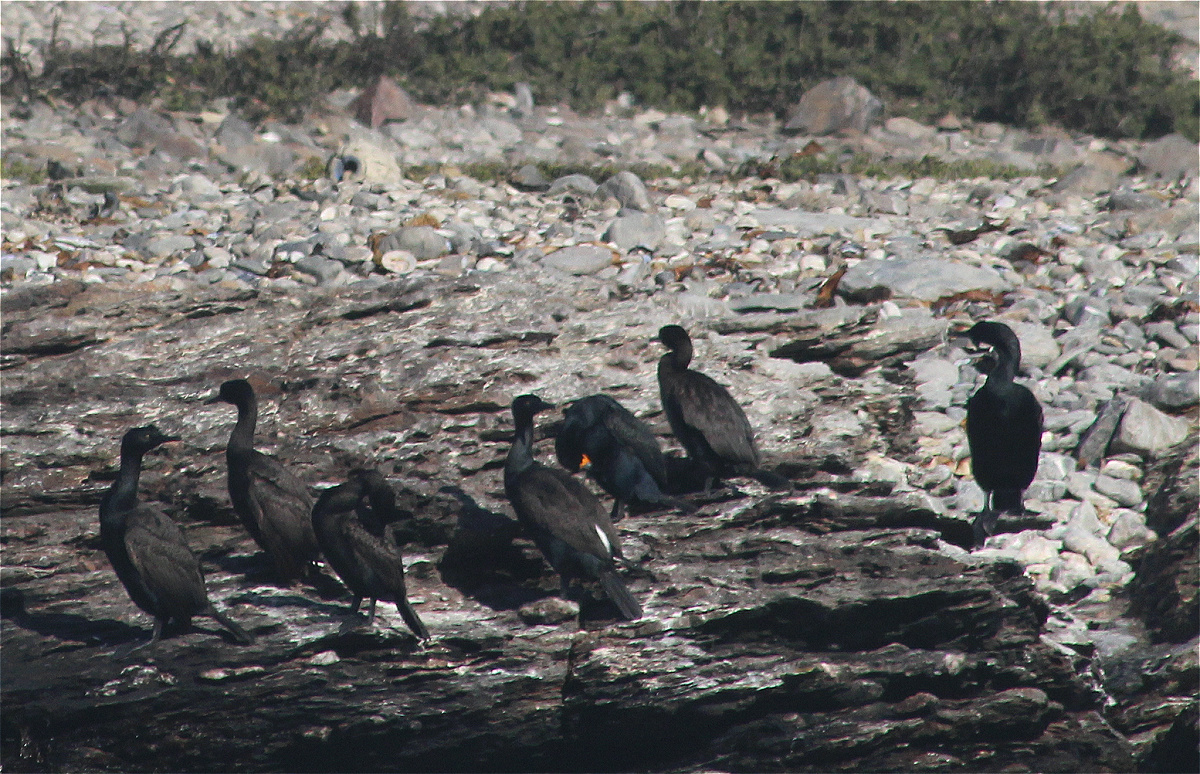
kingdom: Animalia
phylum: Chordata
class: Aves
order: Suliformes
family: Phalacrocoracidae
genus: Phalacrocorax
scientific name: Phalacrocorax neglectus
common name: Bank cormorant
